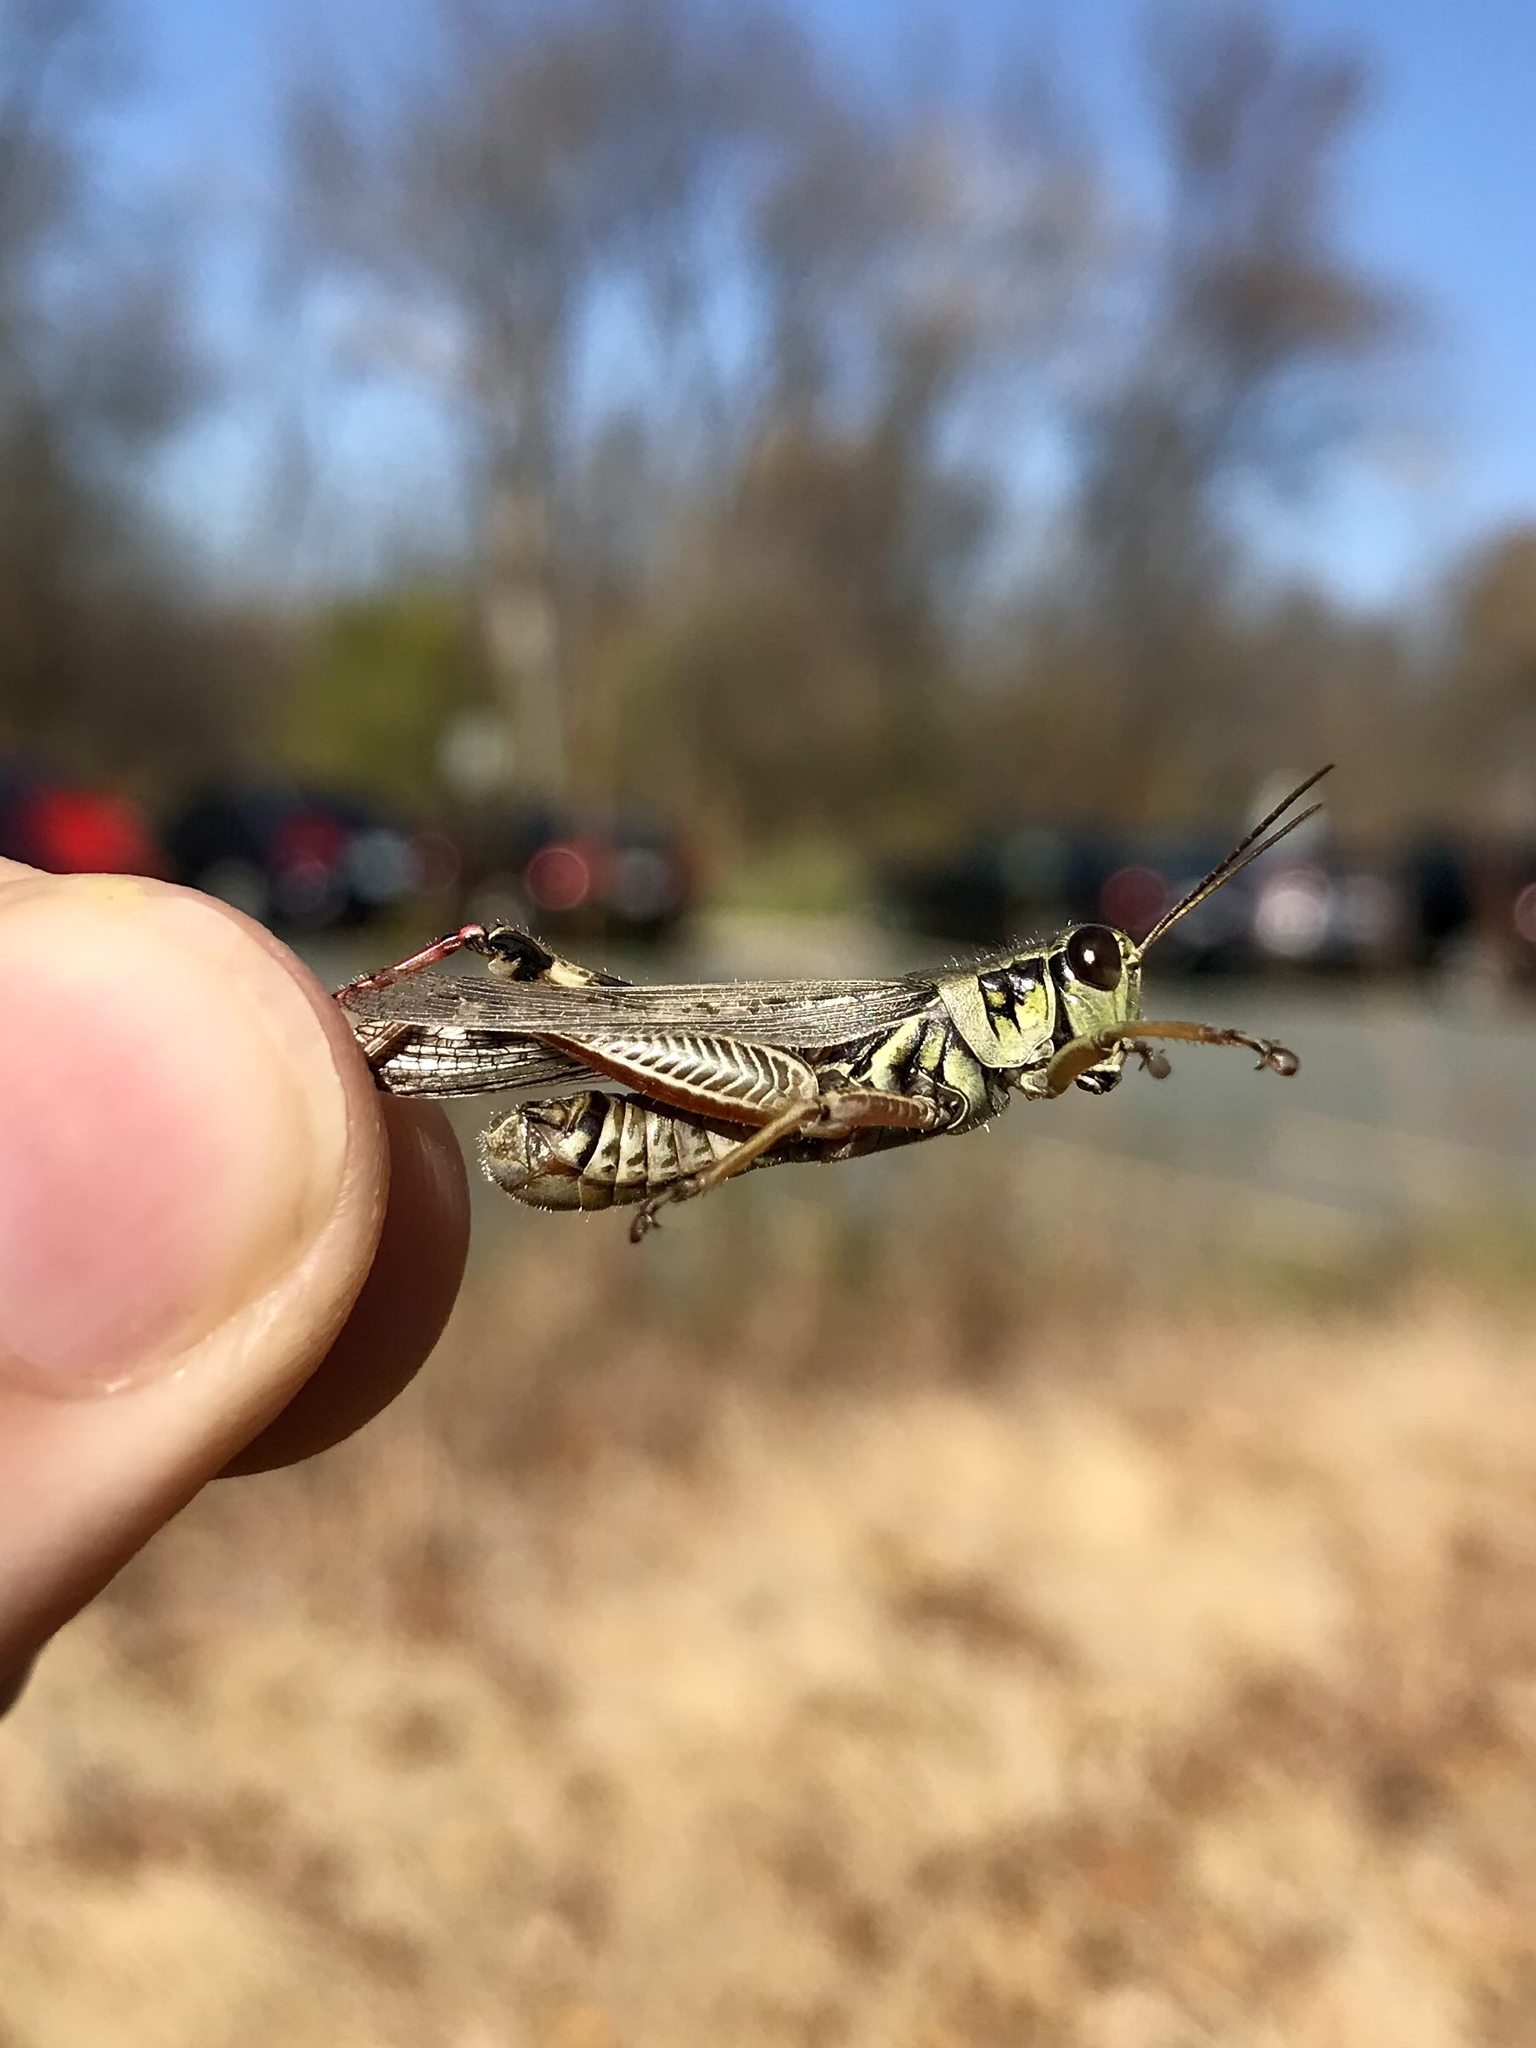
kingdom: Animalia
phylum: Arthropoda
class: Insecta
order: Orthoptera
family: Acrididae
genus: Melanoplus
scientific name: Melanoplus femurrubrum
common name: Red-legged grasshopper
